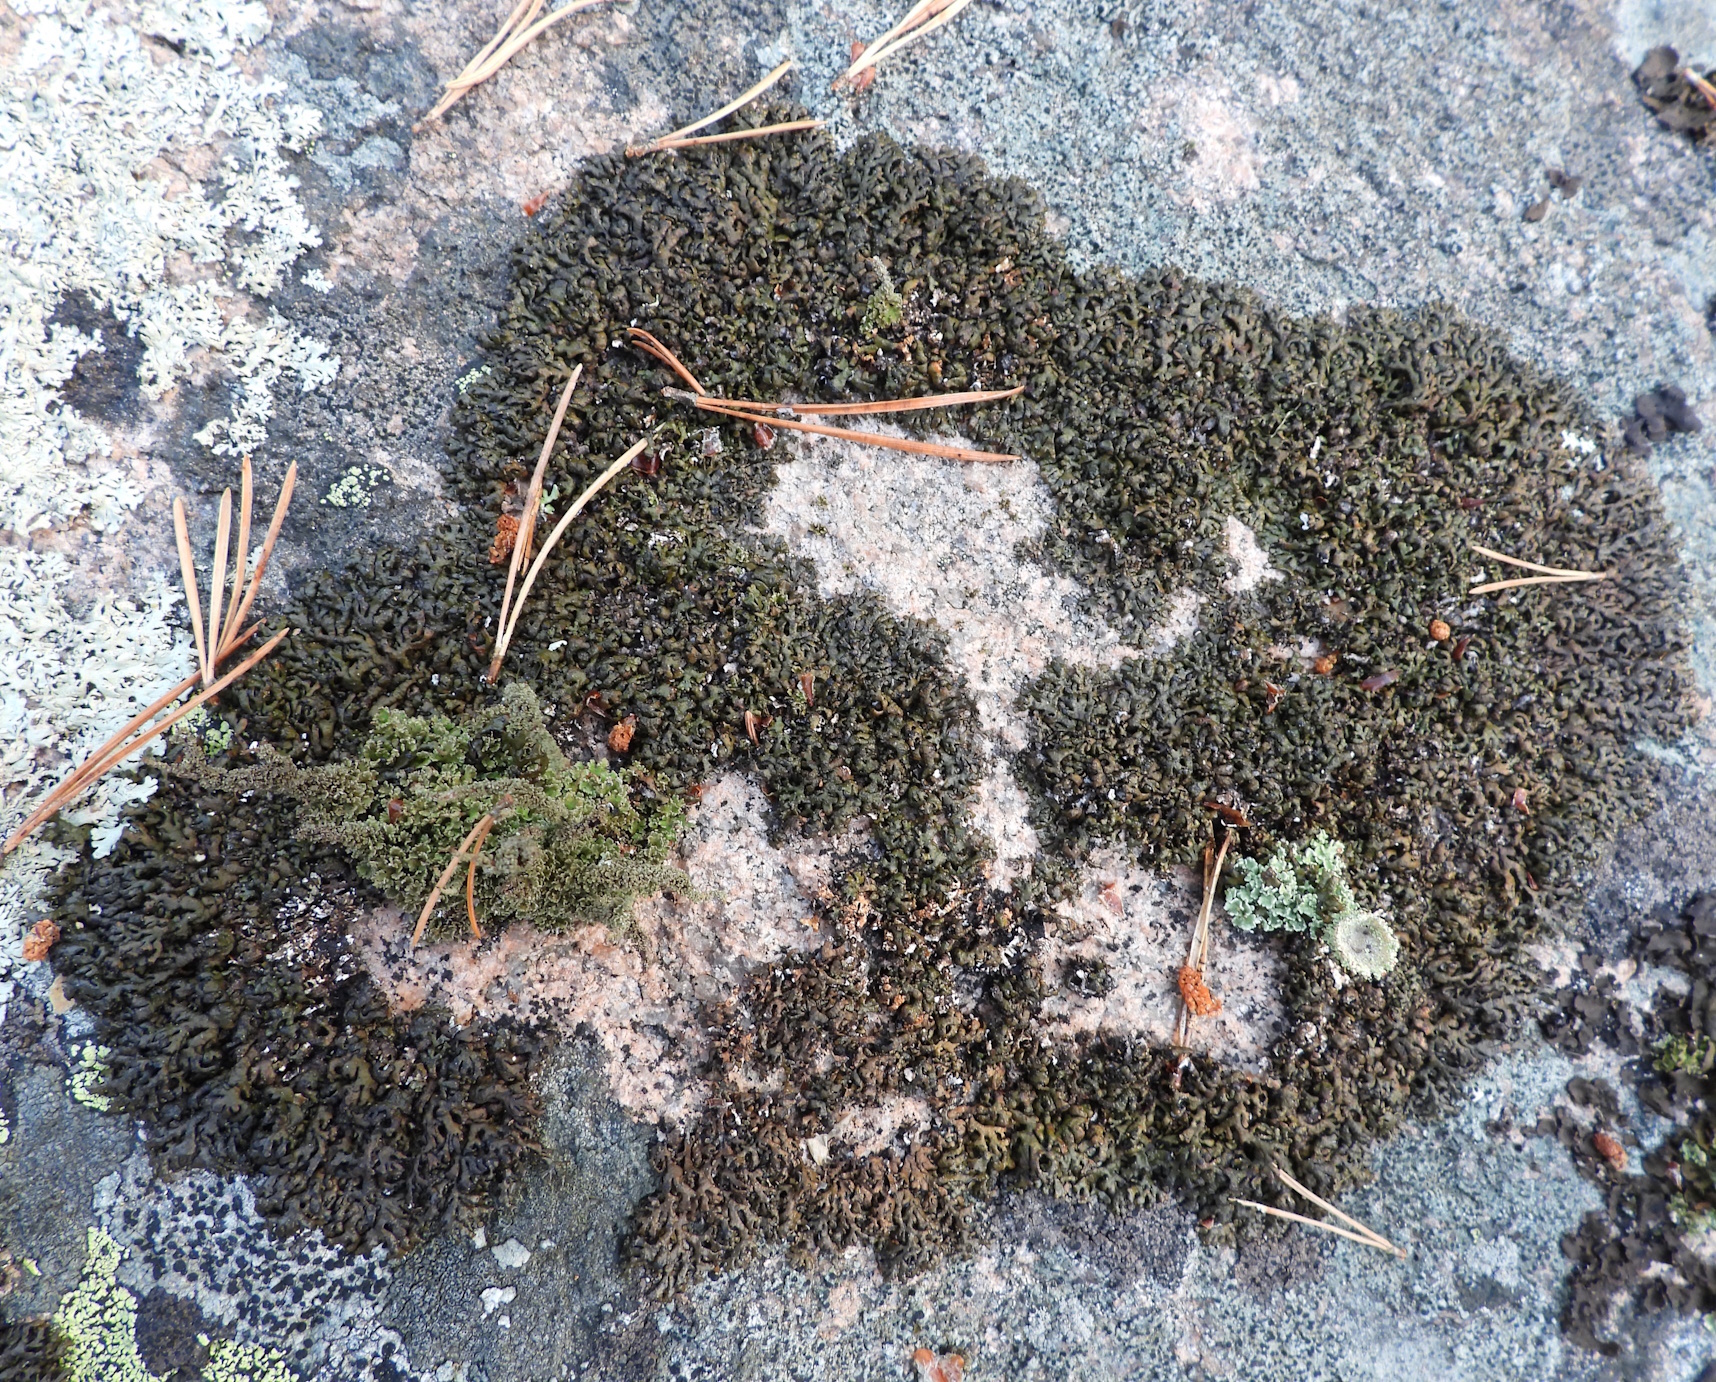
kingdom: Fungi
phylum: Ascomycota
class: Lecanoromycetes
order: Lecanorales
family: Parmeliaceae
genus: Melanelia
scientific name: Melanelia stygia
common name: Alpine camouflage lichen
